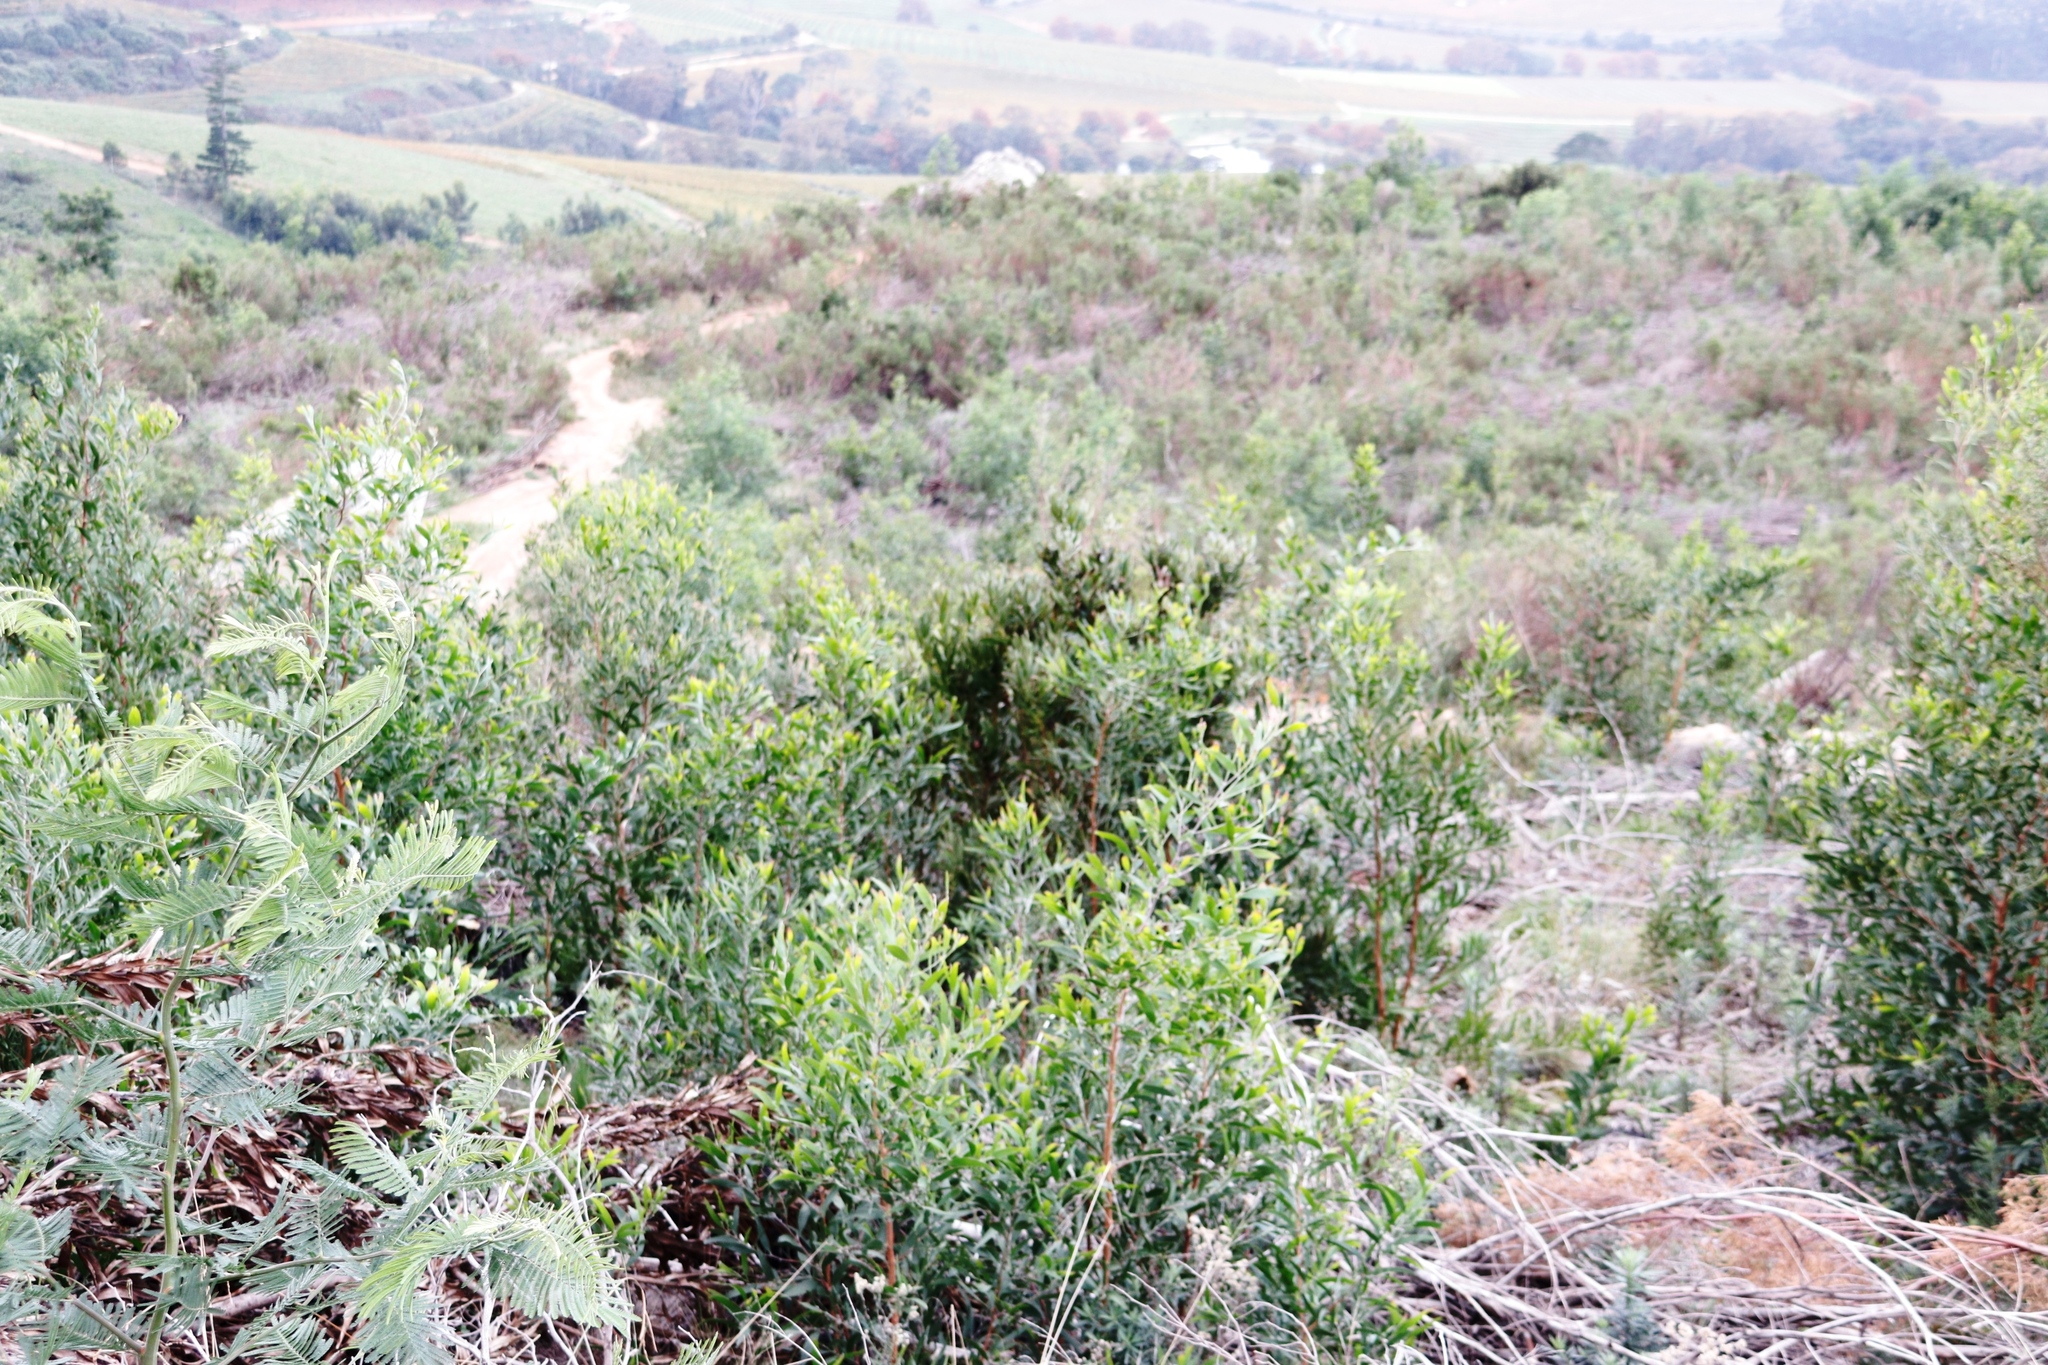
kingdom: Plantae
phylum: Tracheophyta
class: Magnoliopsida
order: Proteales
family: Proteaceae
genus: Protea
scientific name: Protea lepidocarpodendron
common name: Black-bearded protea
